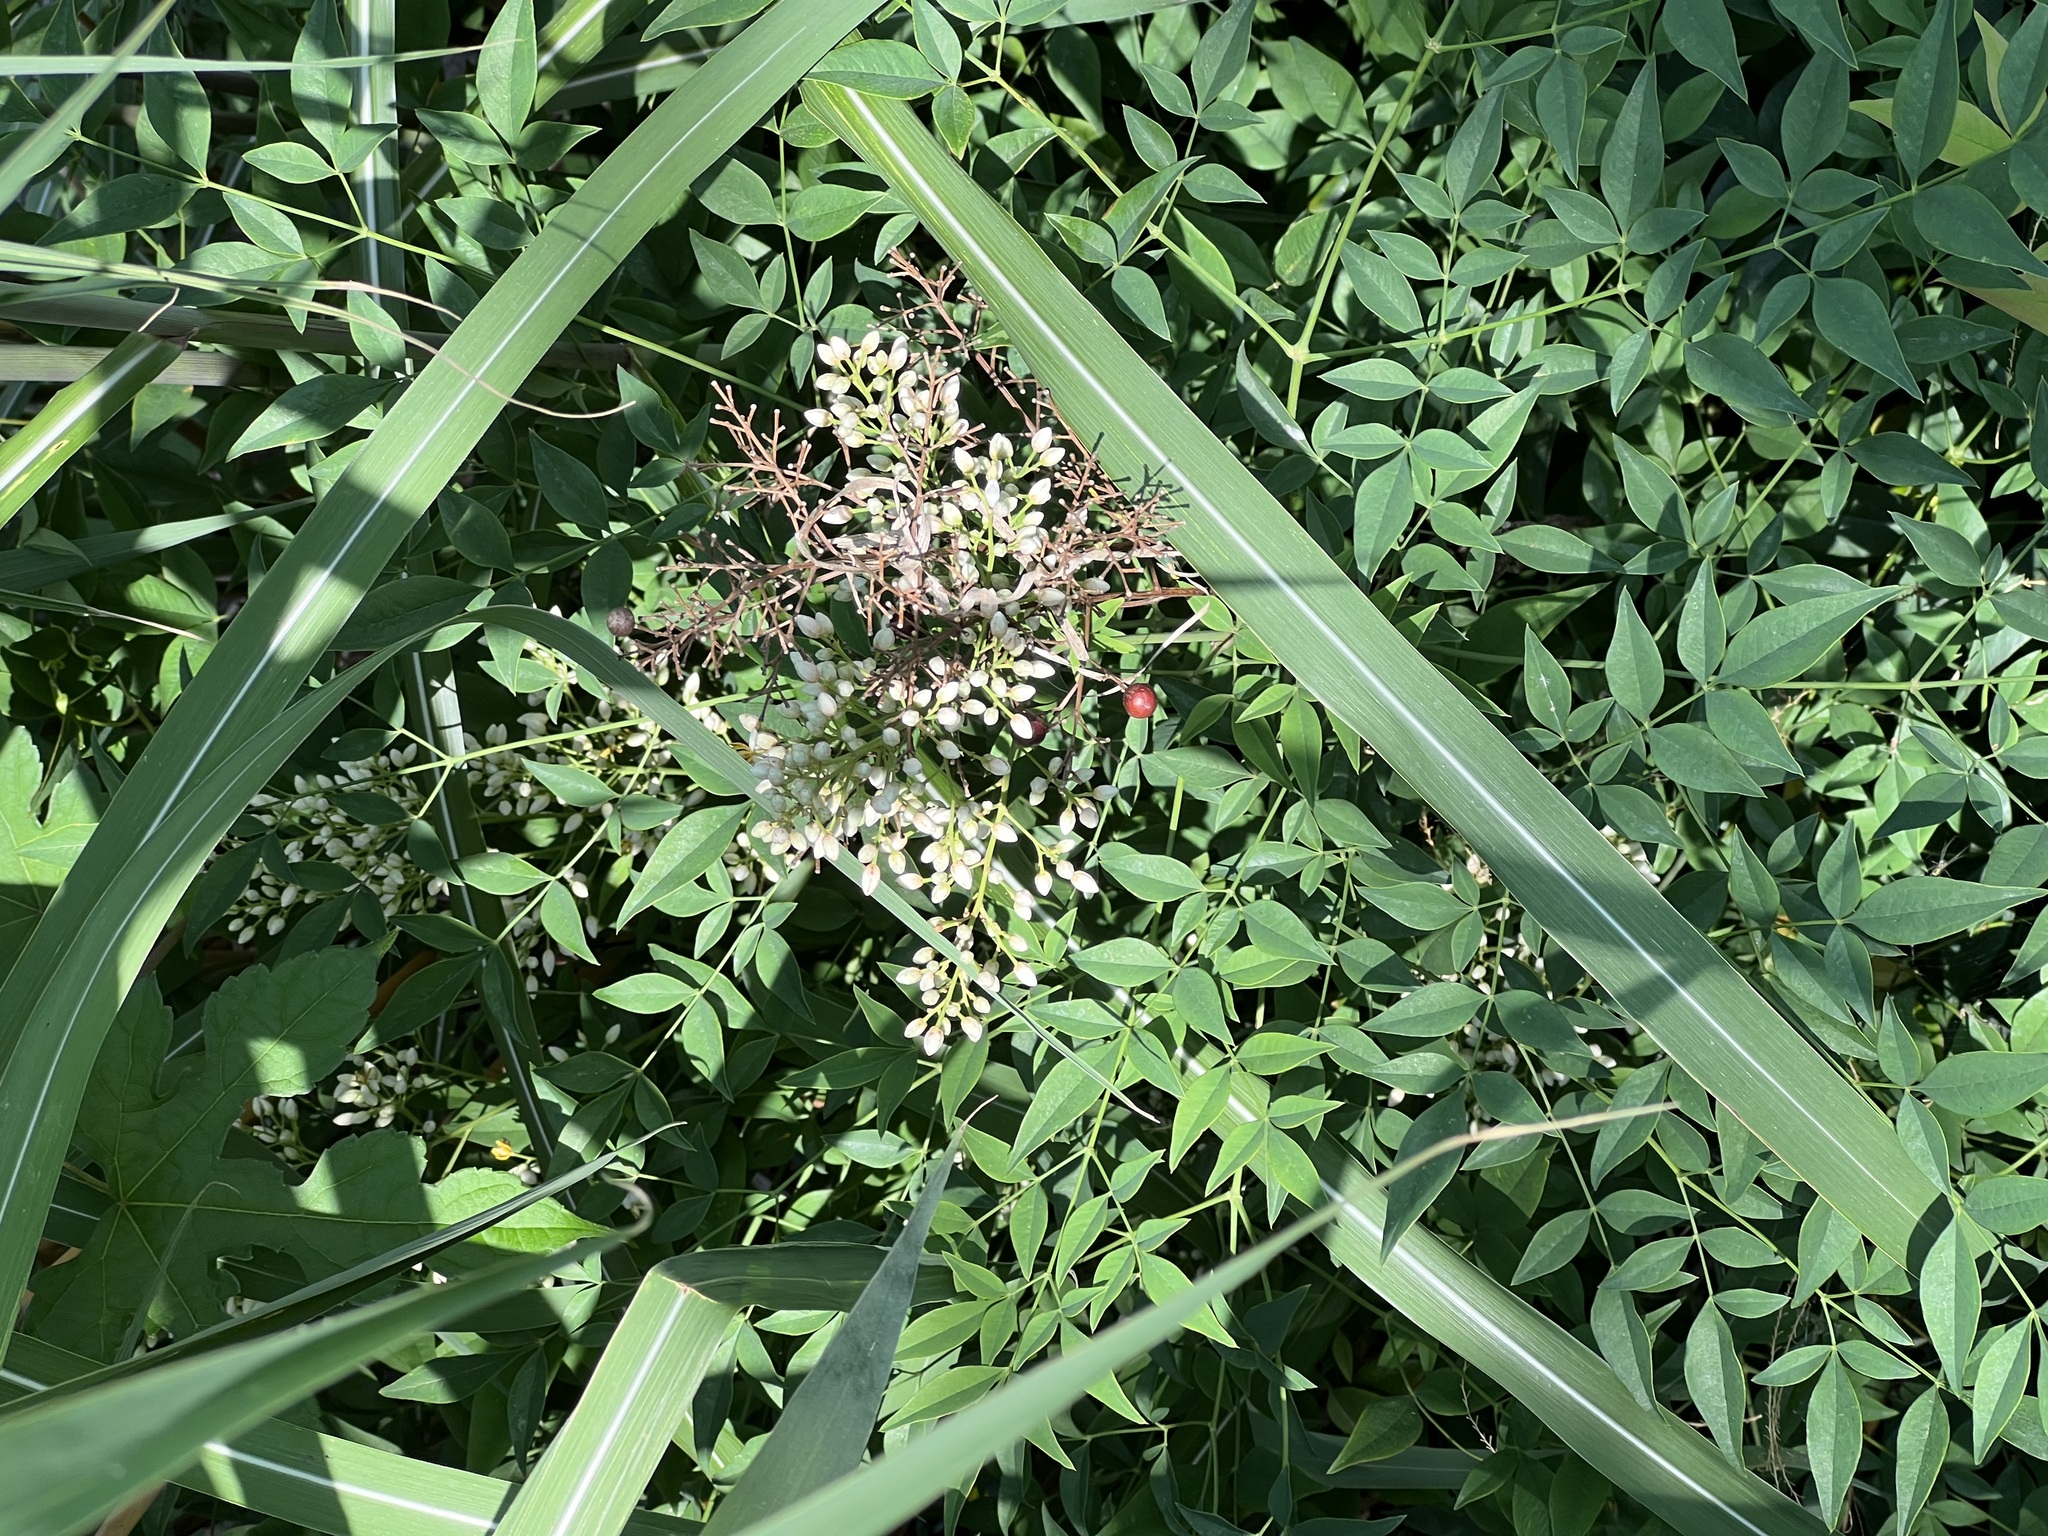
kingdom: Plantae
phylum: Tracheophyta
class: Magnoliopsida
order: Ranunculales
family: Berberidaceae
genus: Nandina
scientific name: Nandina domestica
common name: Sacred bamboo
